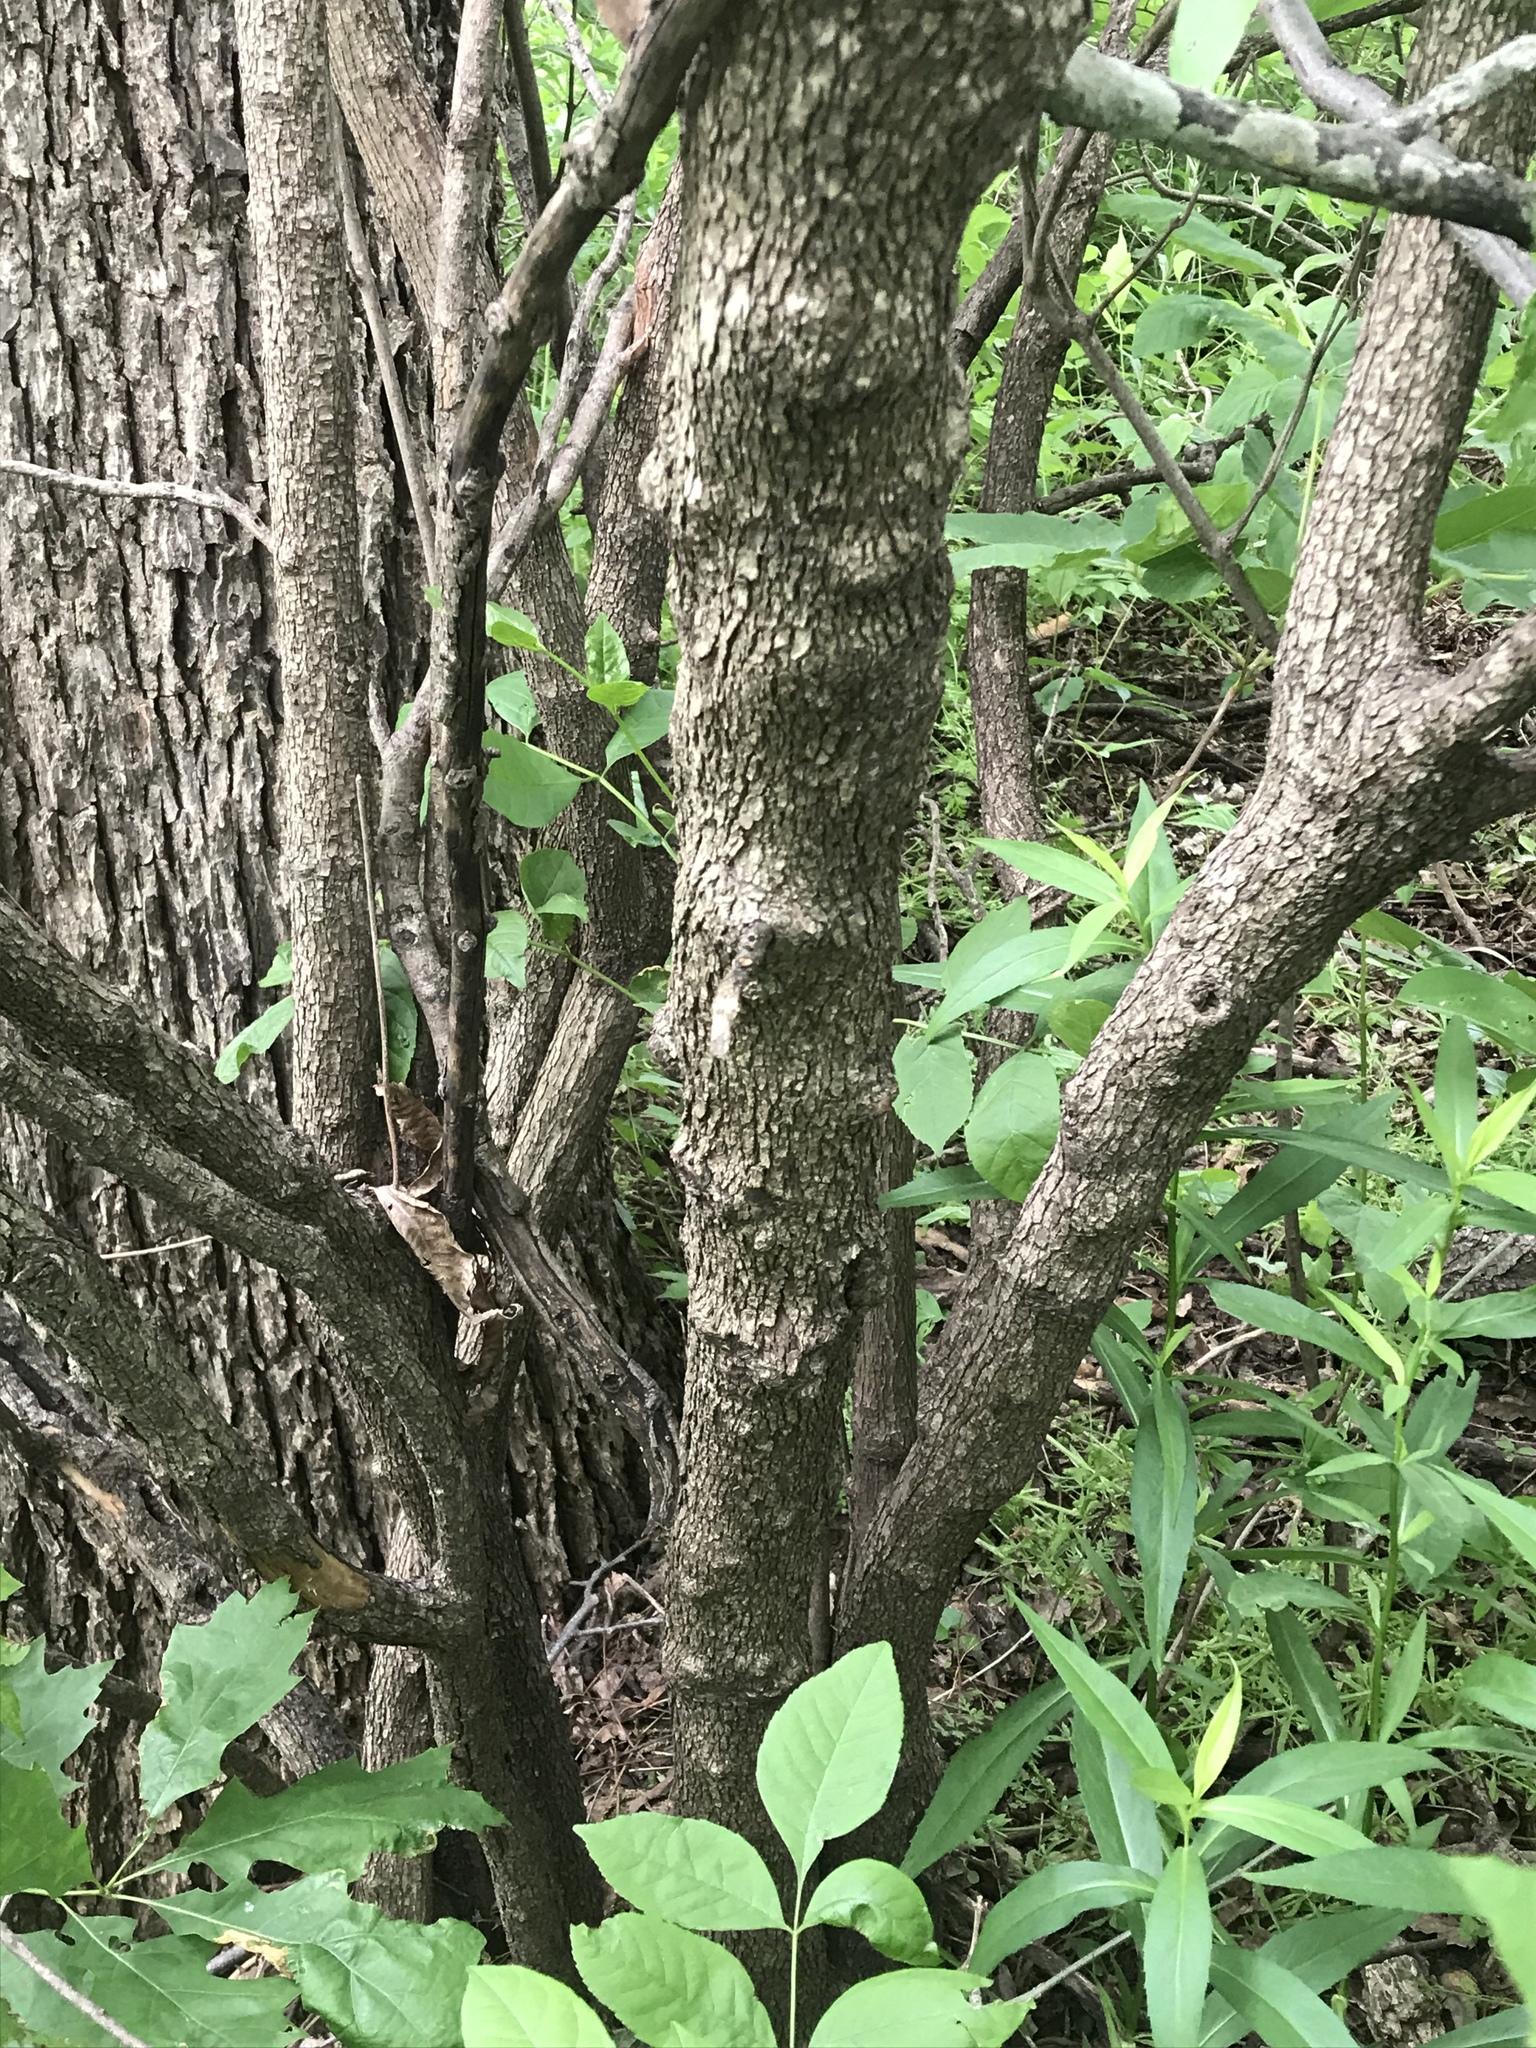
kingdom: Plantae
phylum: Tracheophyta
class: Magnoliopsida
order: Cornales
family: Cornaceae
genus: Cornus
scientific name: Cornus drummondii
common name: Rough-leaf dogwood
